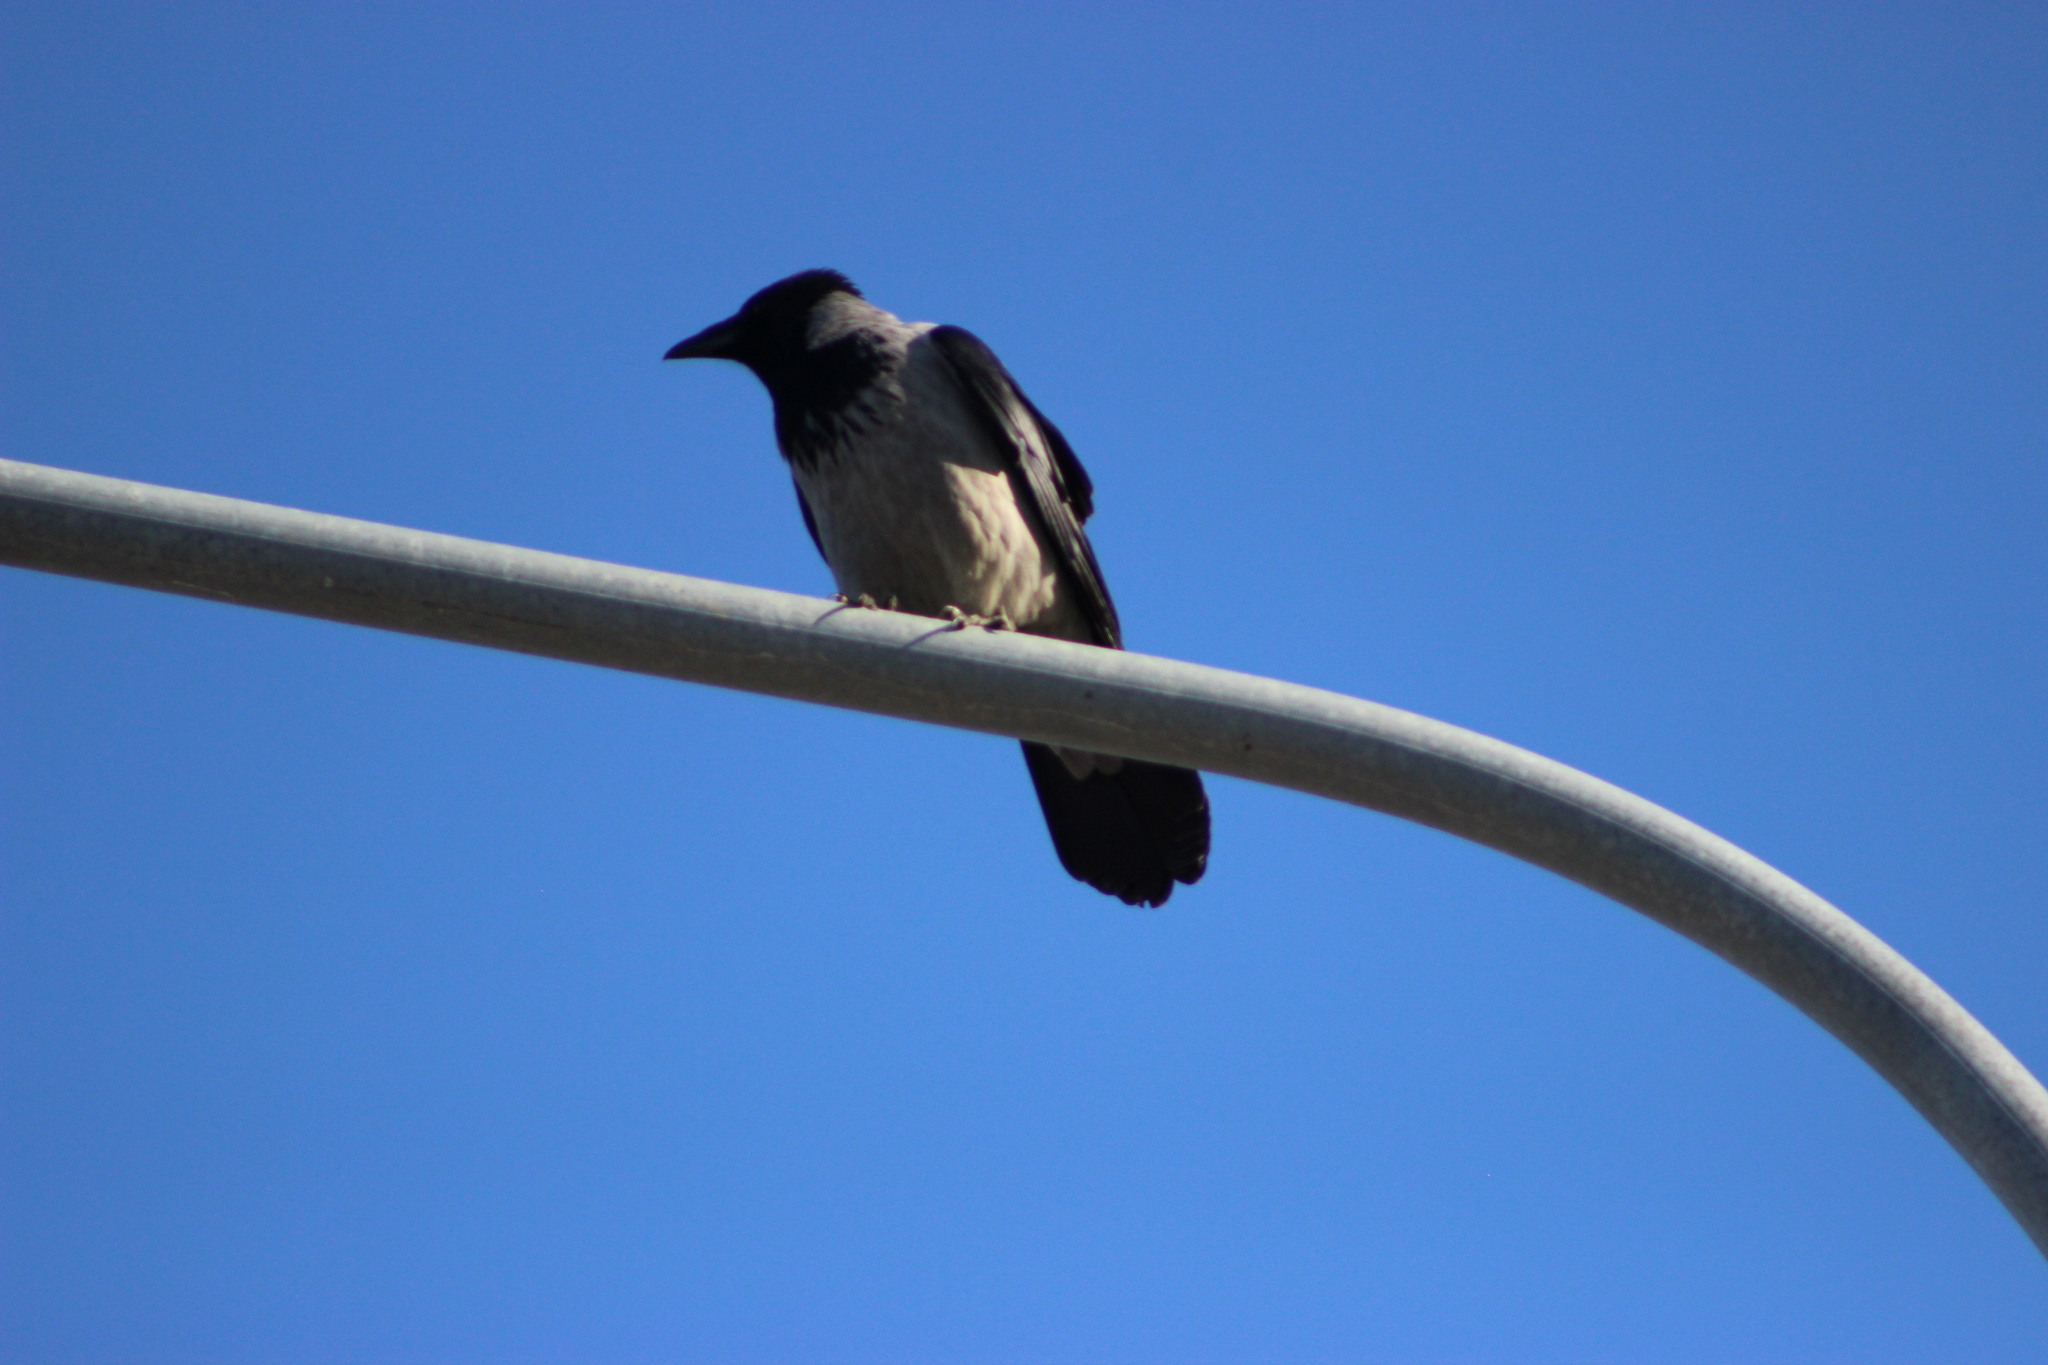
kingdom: Animalia
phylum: Chordata
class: Aves
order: Passeriformes
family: Corvidae
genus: Corvus
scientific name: Corvus cornix
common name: Hooded crow
